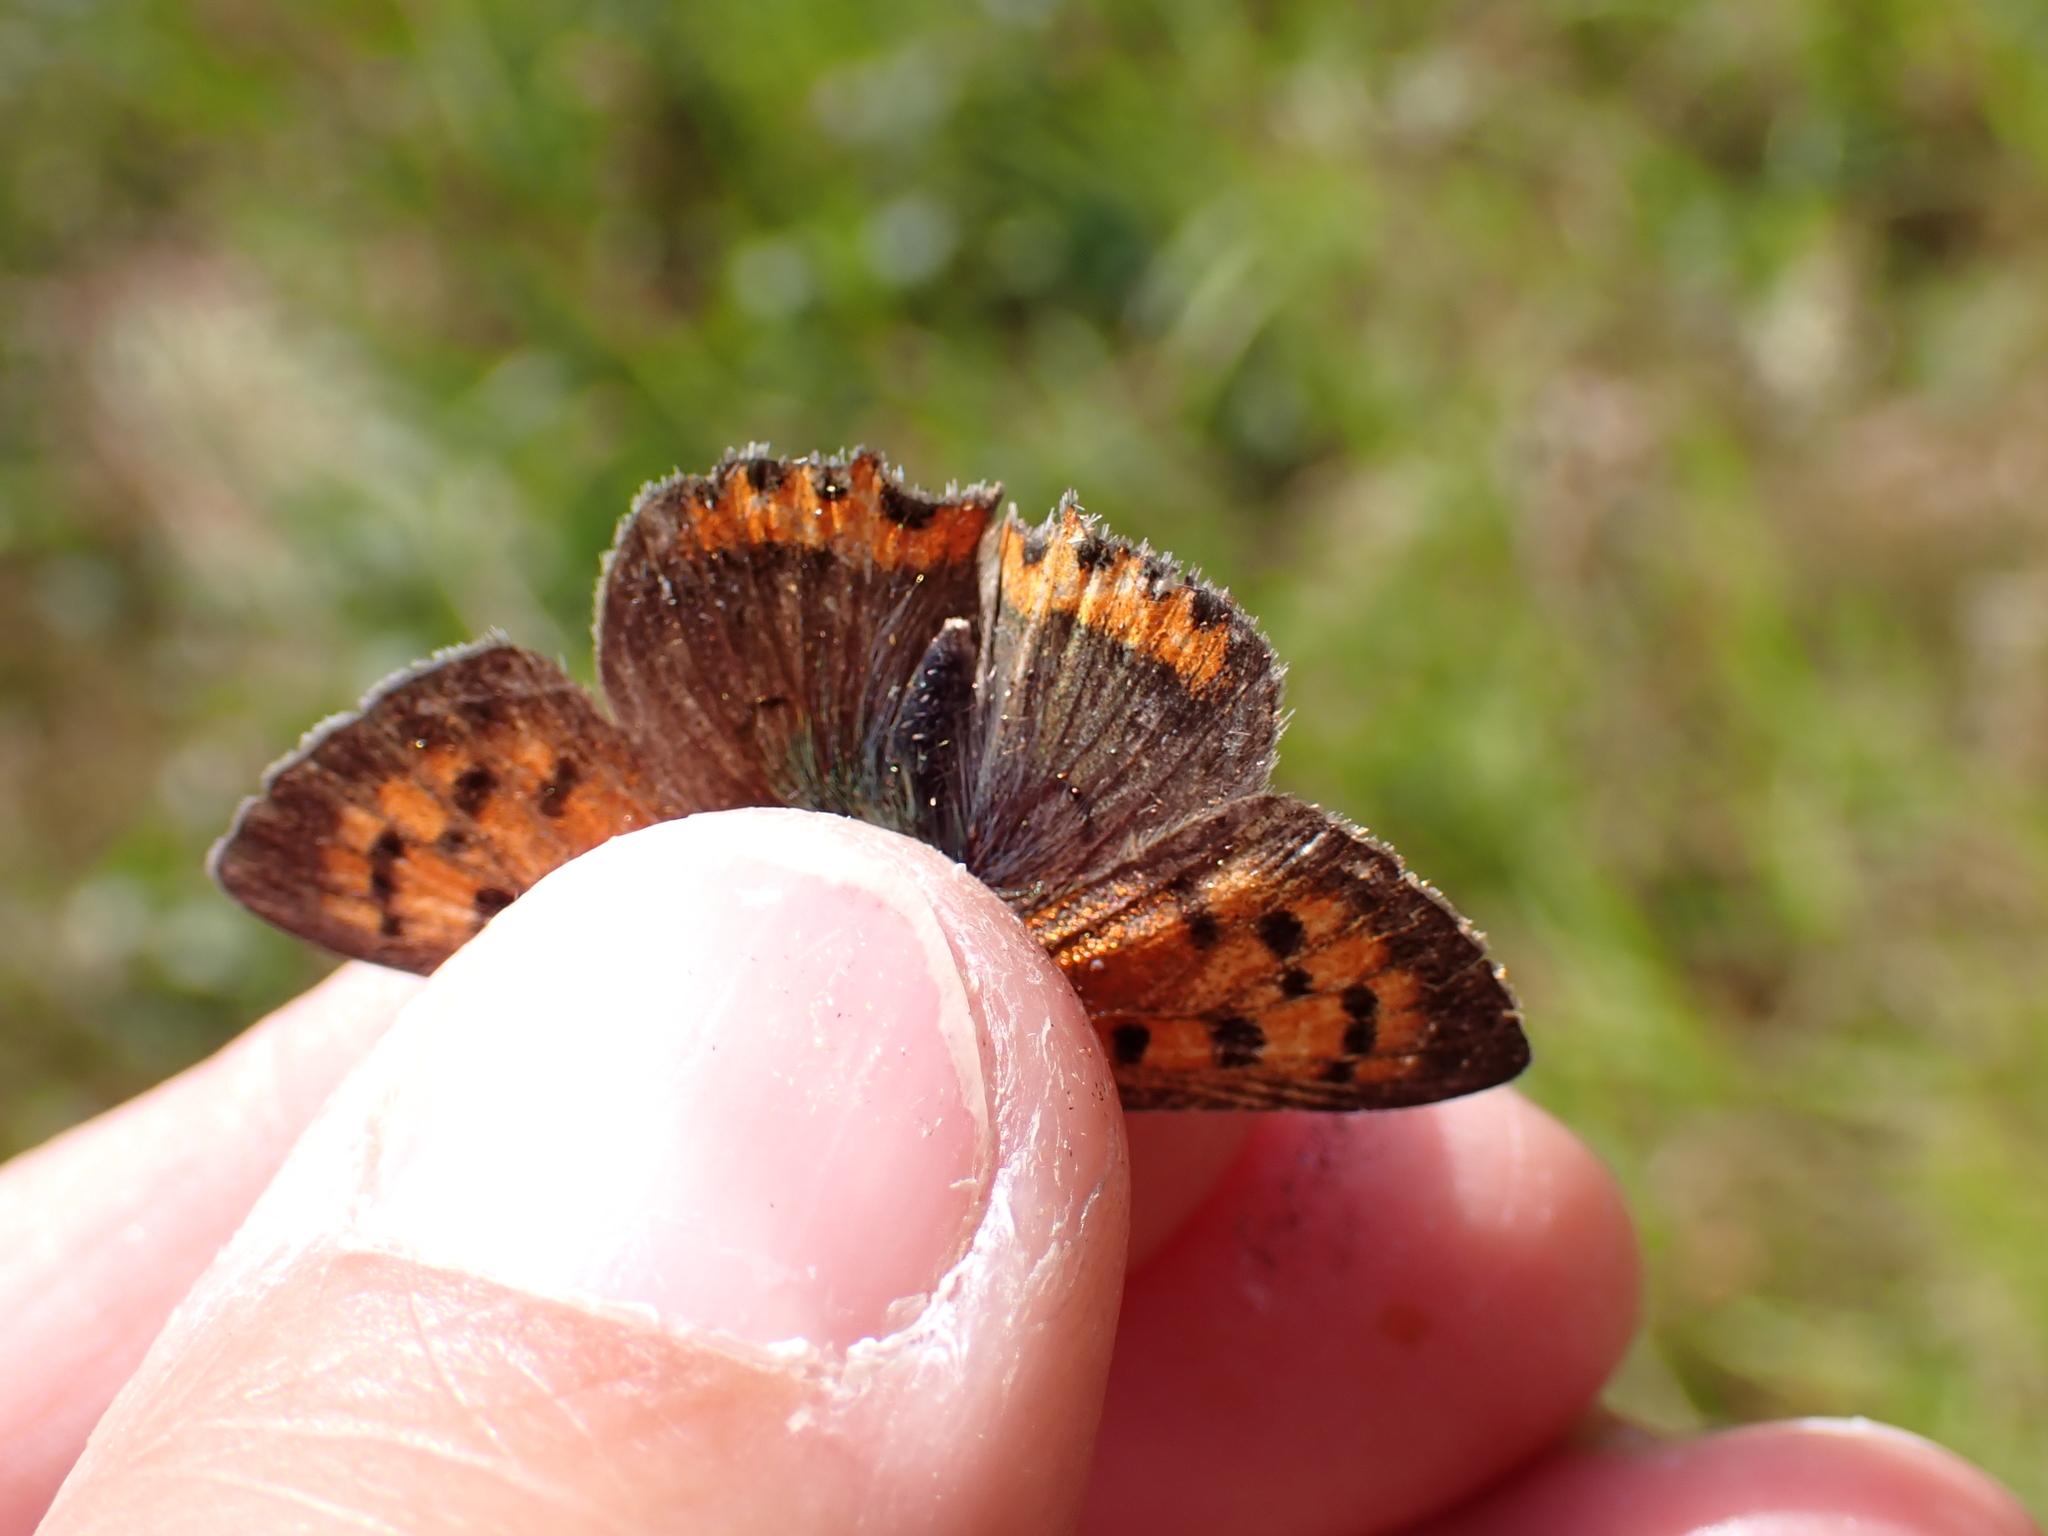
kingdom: Animalia
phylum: Arthropoda
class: Insecta
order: Lepidoptera
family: Lycaenidae
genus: Lycaena
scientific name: Lycaena phlaeas
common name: Small copper
